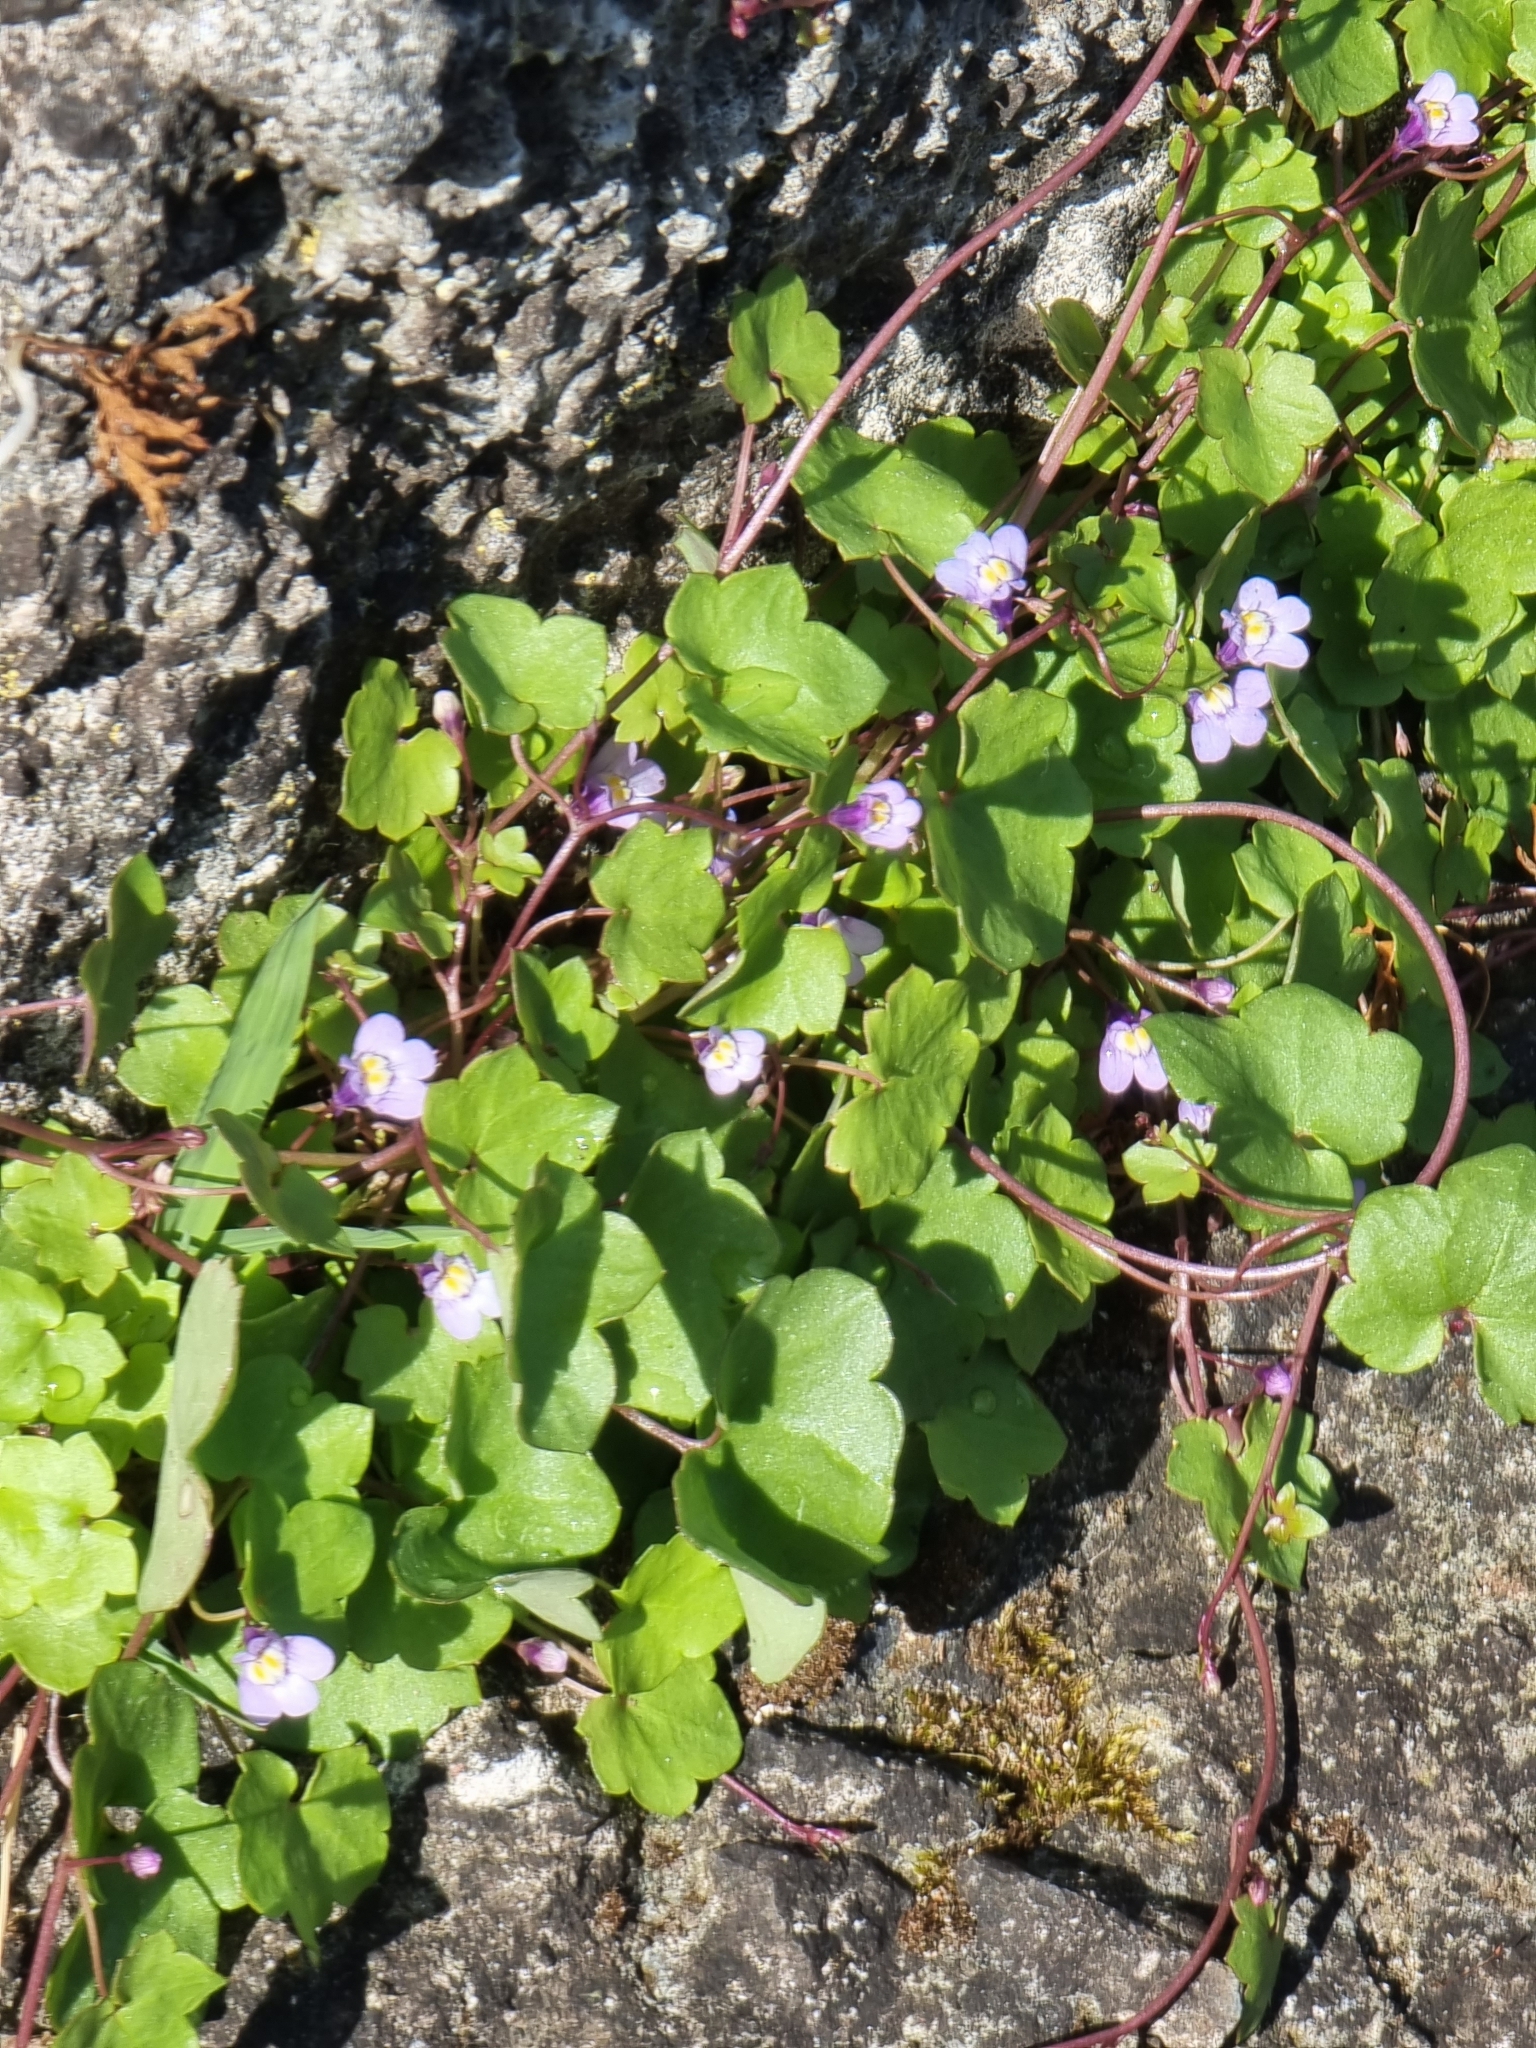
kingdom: Plantae
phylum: Tracheophyta
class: Magnoliopsida
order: Lamiales
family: Plantaginaceae
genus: Cymbalaria
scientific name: Cymbalaria muralis
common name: Ivy-leaved toadflax
